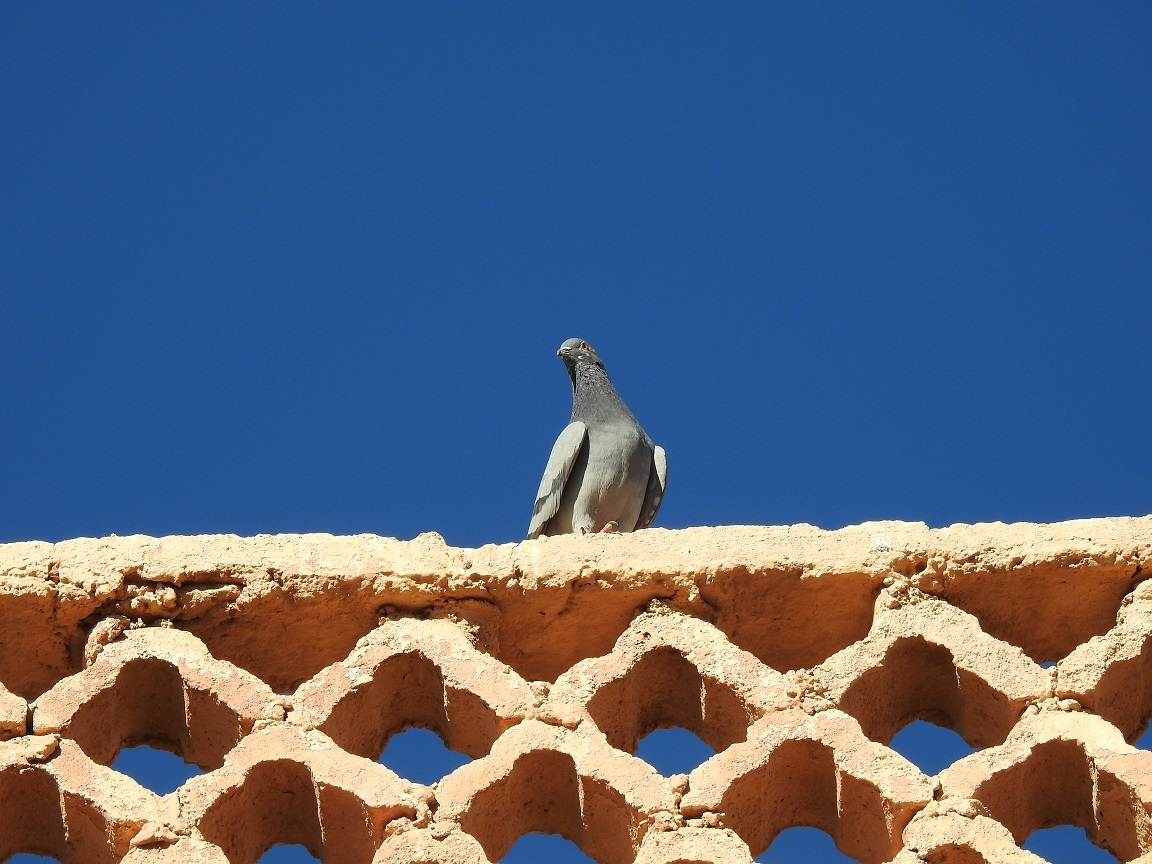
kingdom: Animalia
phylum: Chordata
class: Aves
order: Columbiformes
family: Columbidae
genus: Columba
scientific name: Columba livia
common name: Rock pigeon
